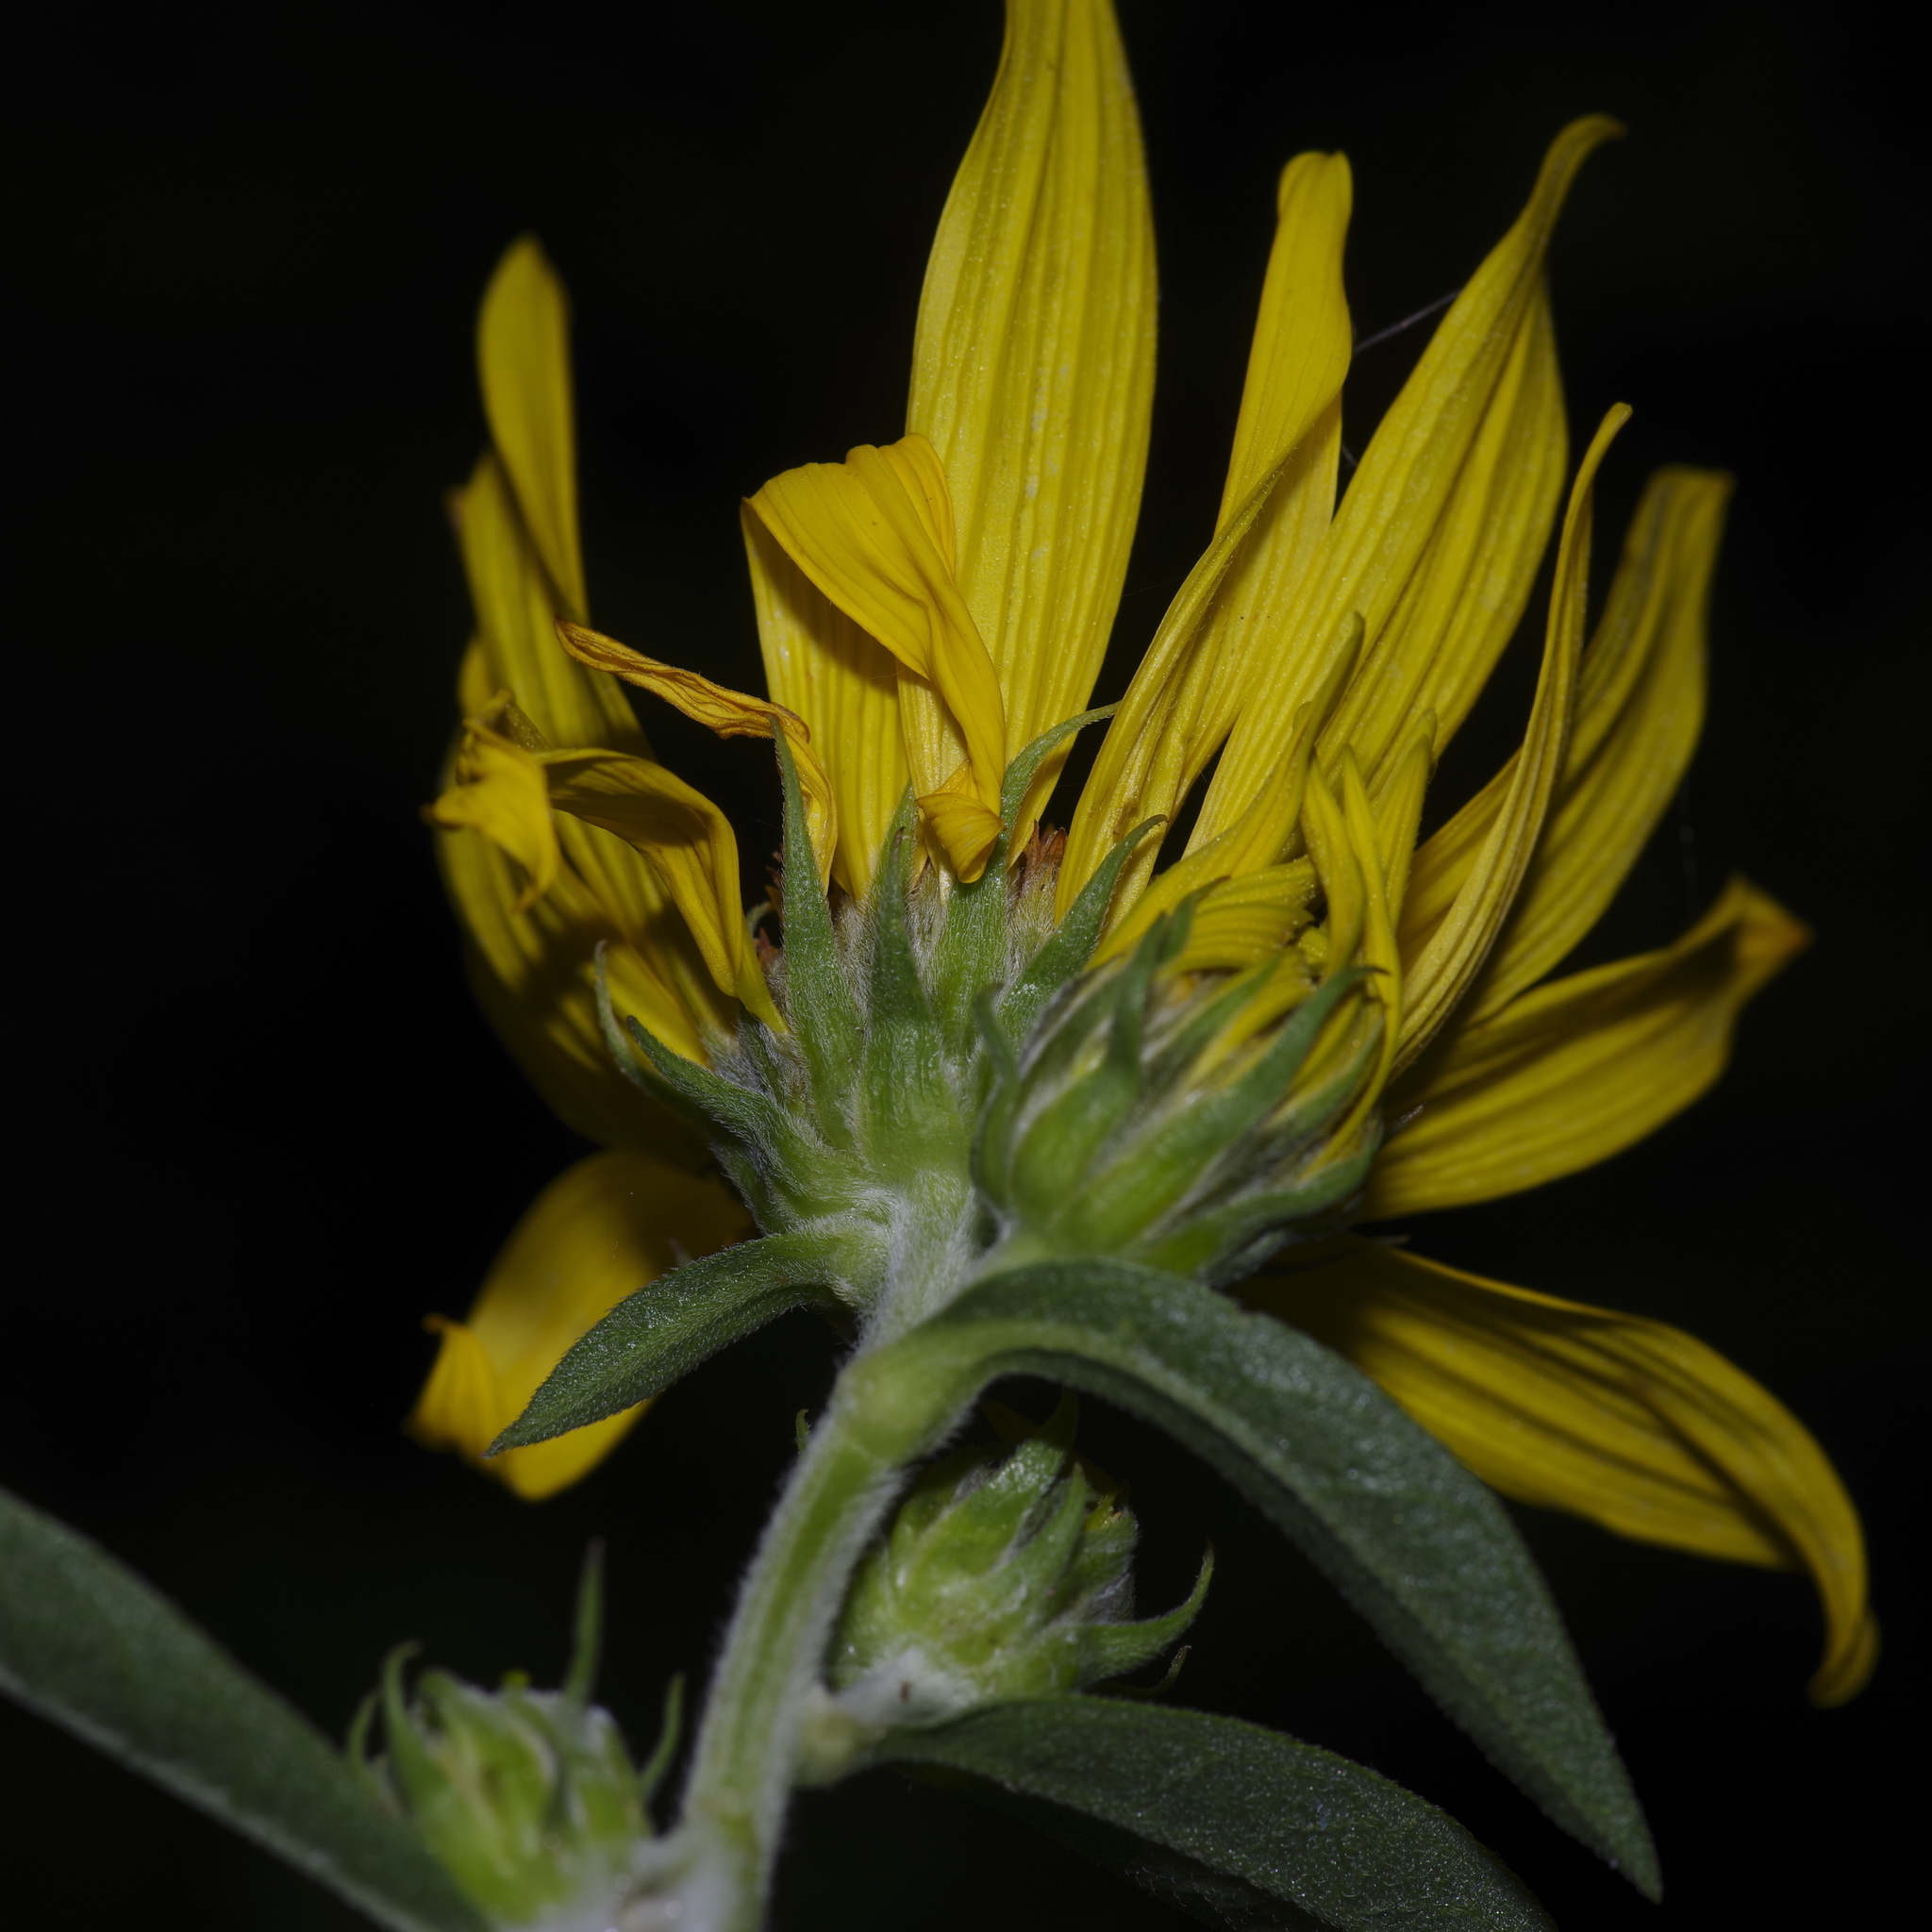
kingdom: Plantae
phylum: Tracheophyta
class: Magnoliopsida
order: Asterales
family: Asteraceae
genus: Helianthus
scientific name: Helianthus maximiliani
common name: Maximilian's sunflower
